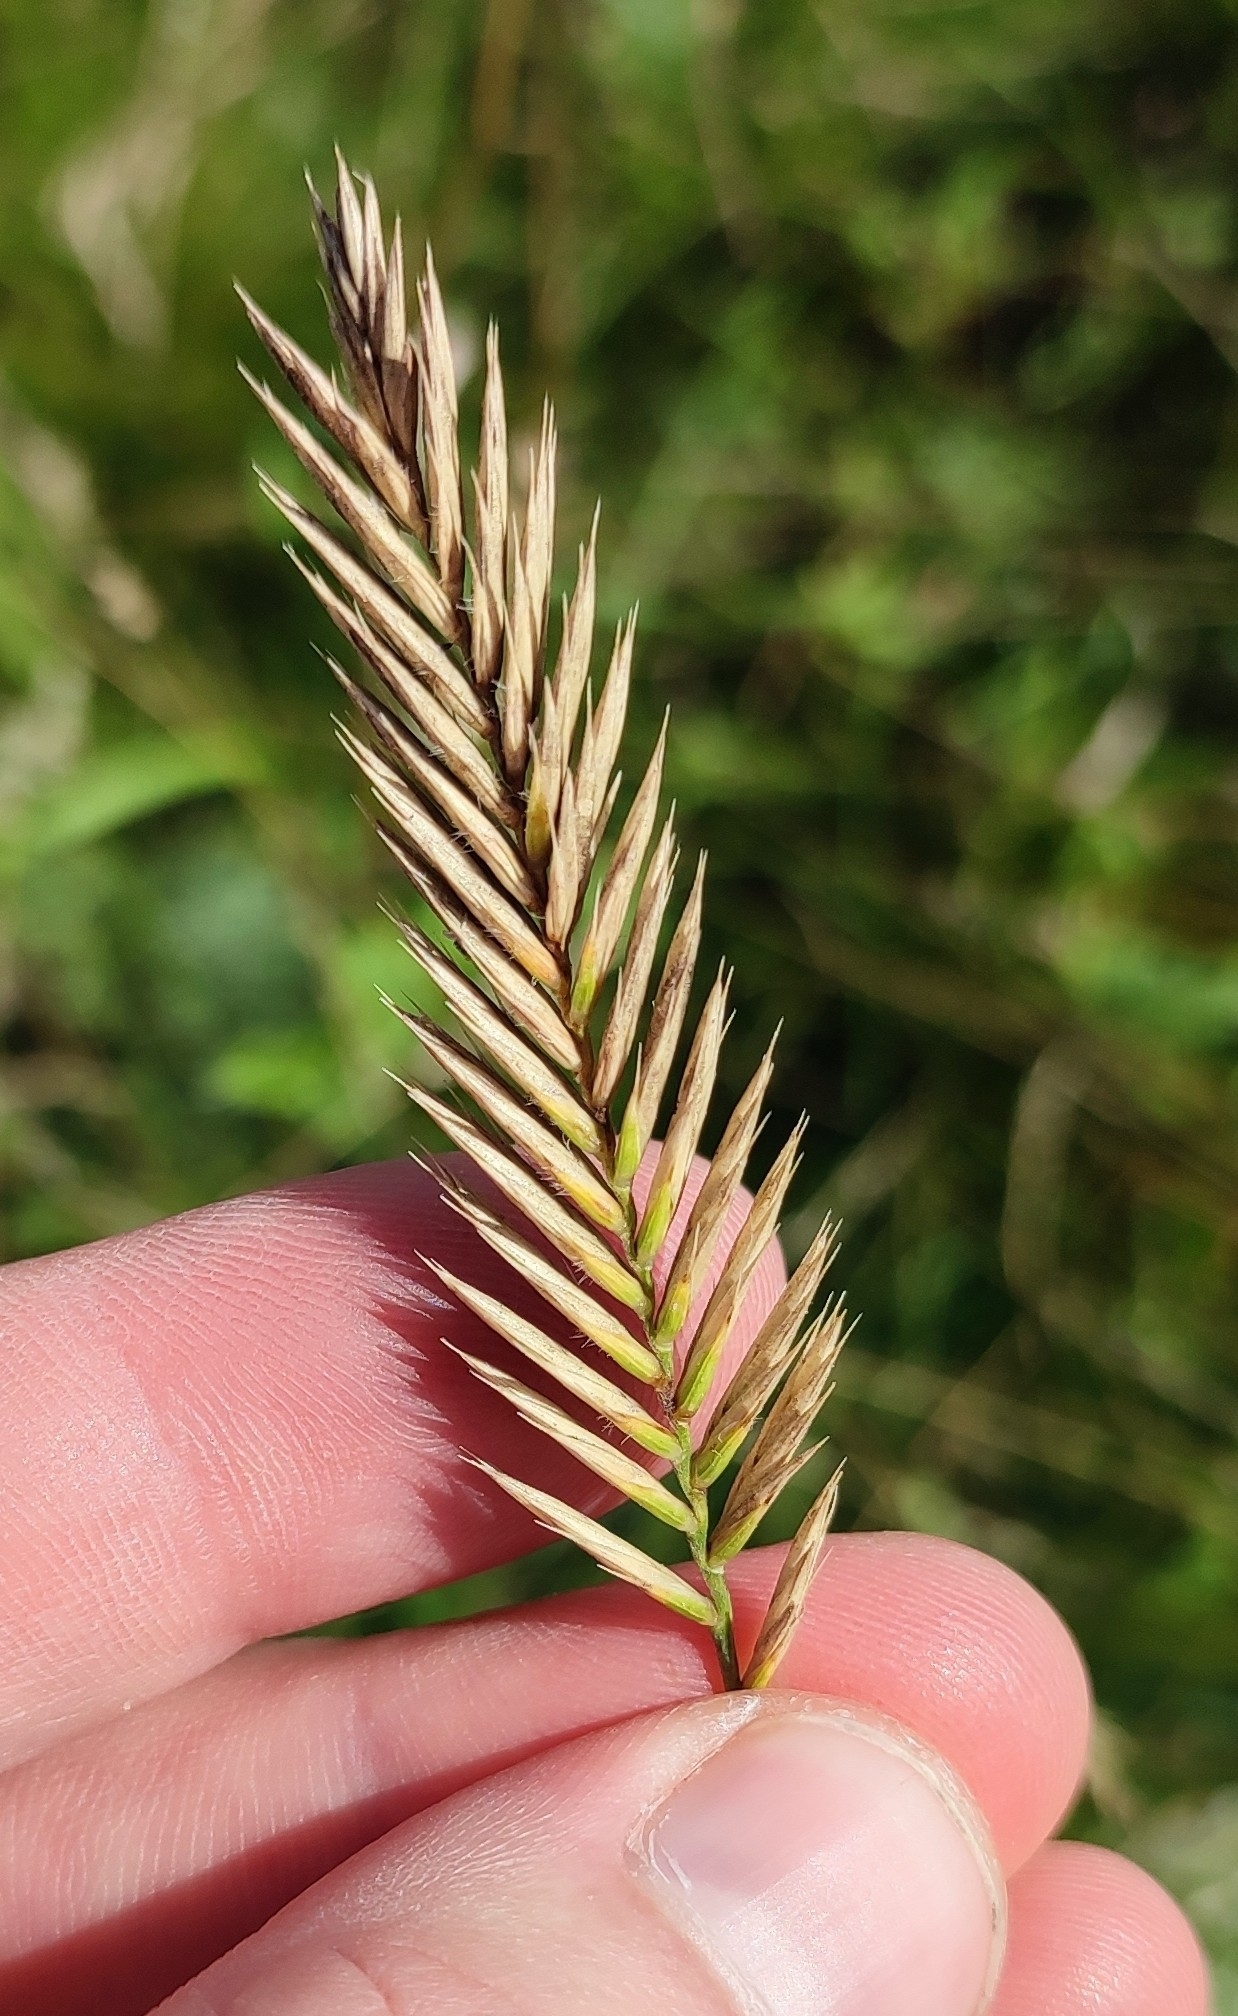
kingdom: Plantae
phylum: Tracheophyta
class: Liliopsida
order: Poales
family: Poaceae
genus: Agropyron
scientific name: Agropyron cristatum
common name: Crested wheatgrass
